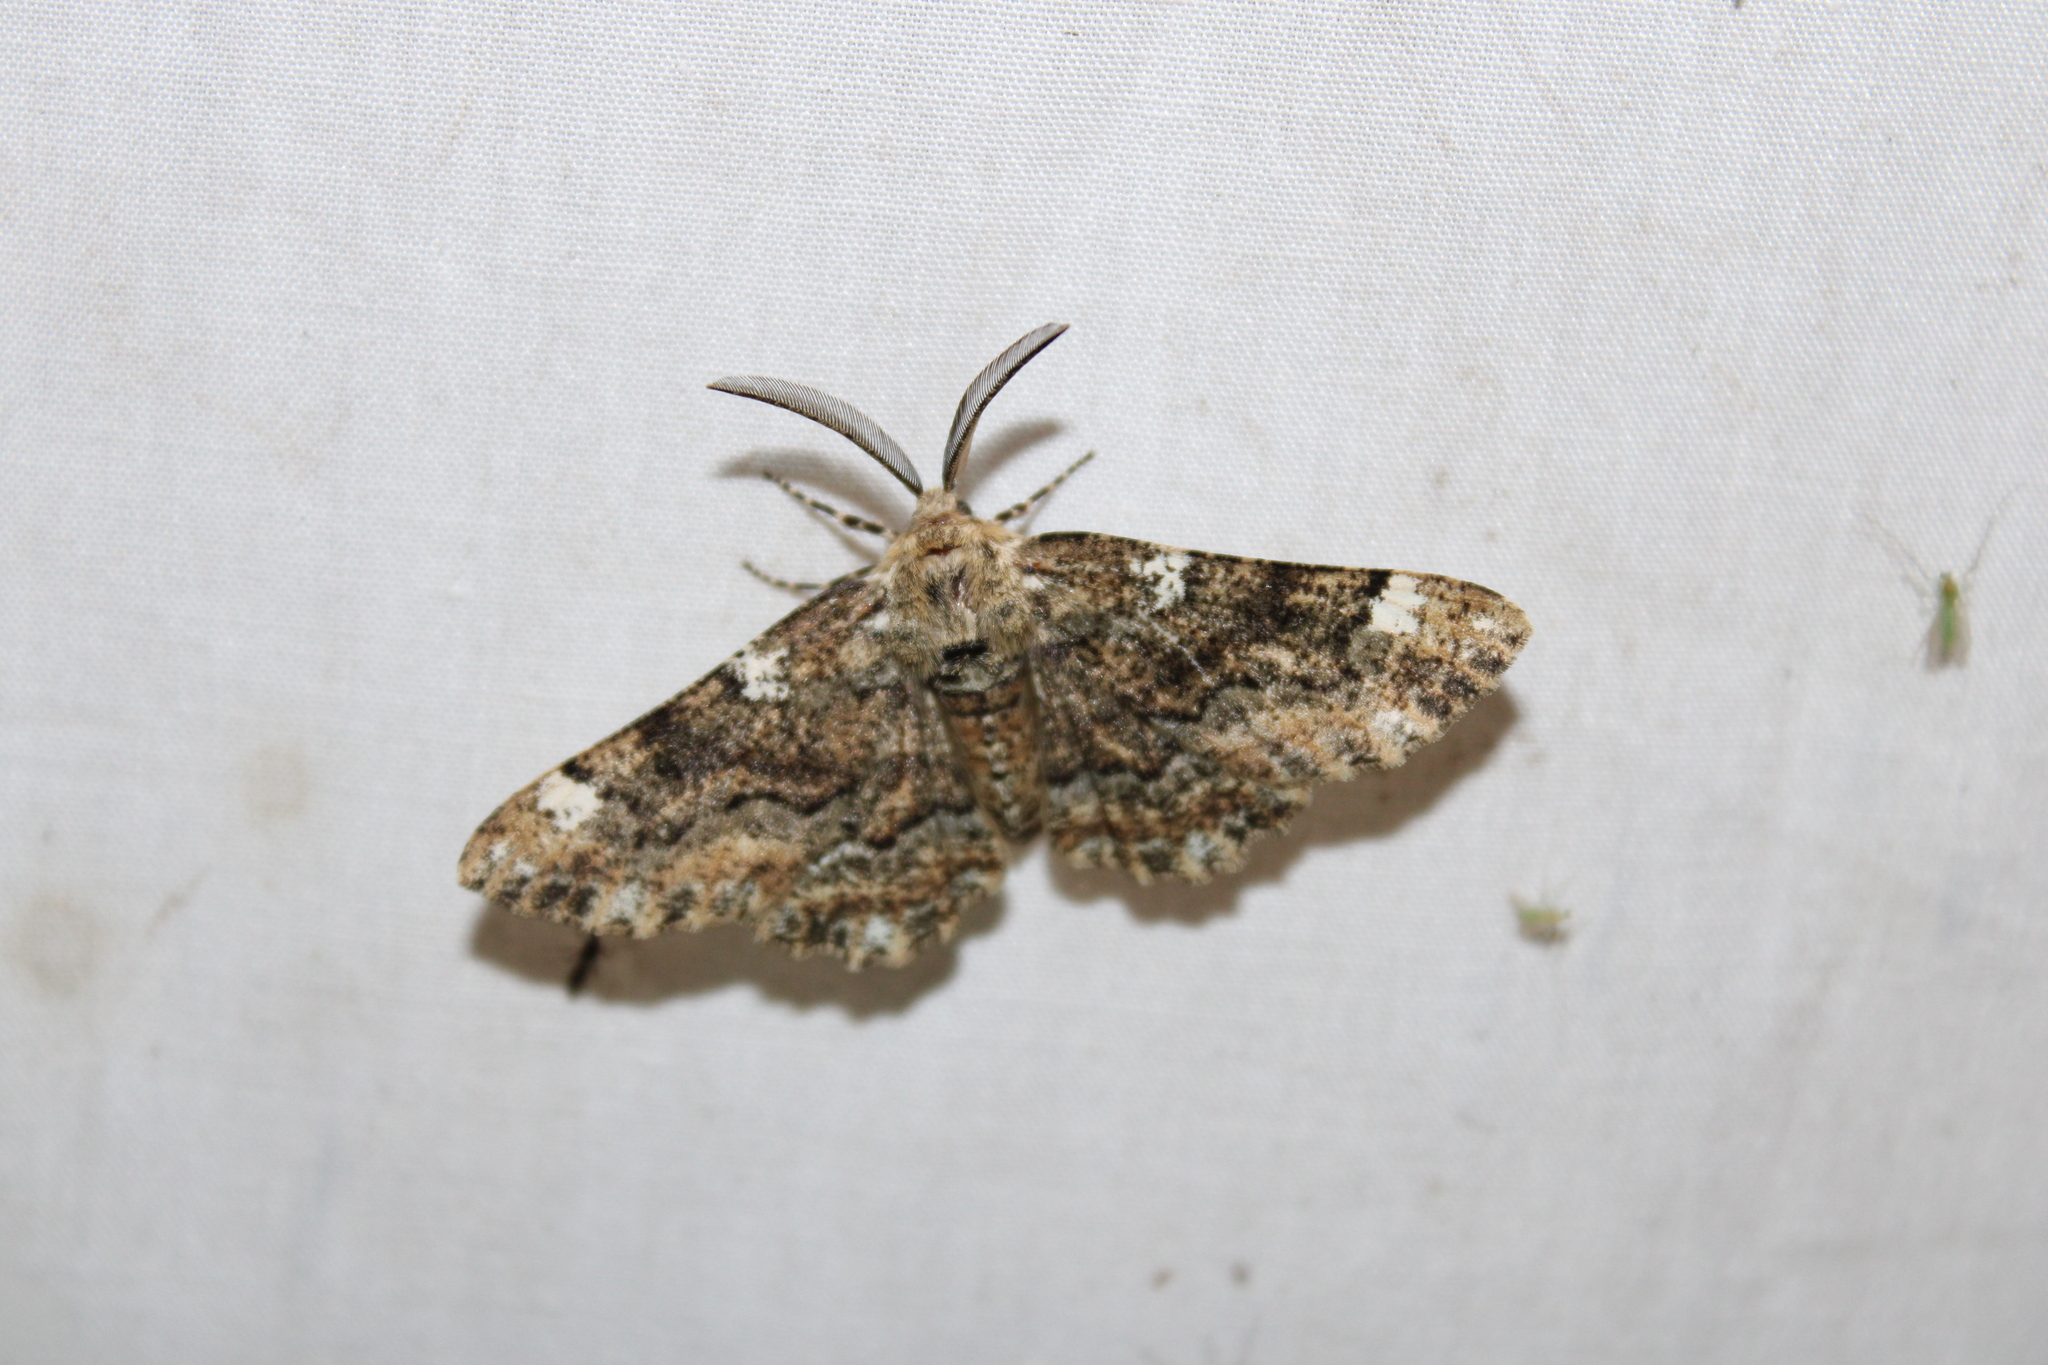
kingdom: Animalia
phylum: Arthropoda
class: Insecta
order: Lepidoptera
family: Geometridae
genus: Phaeoura
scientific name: Phaeoura quernaria
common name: Oak beauty
